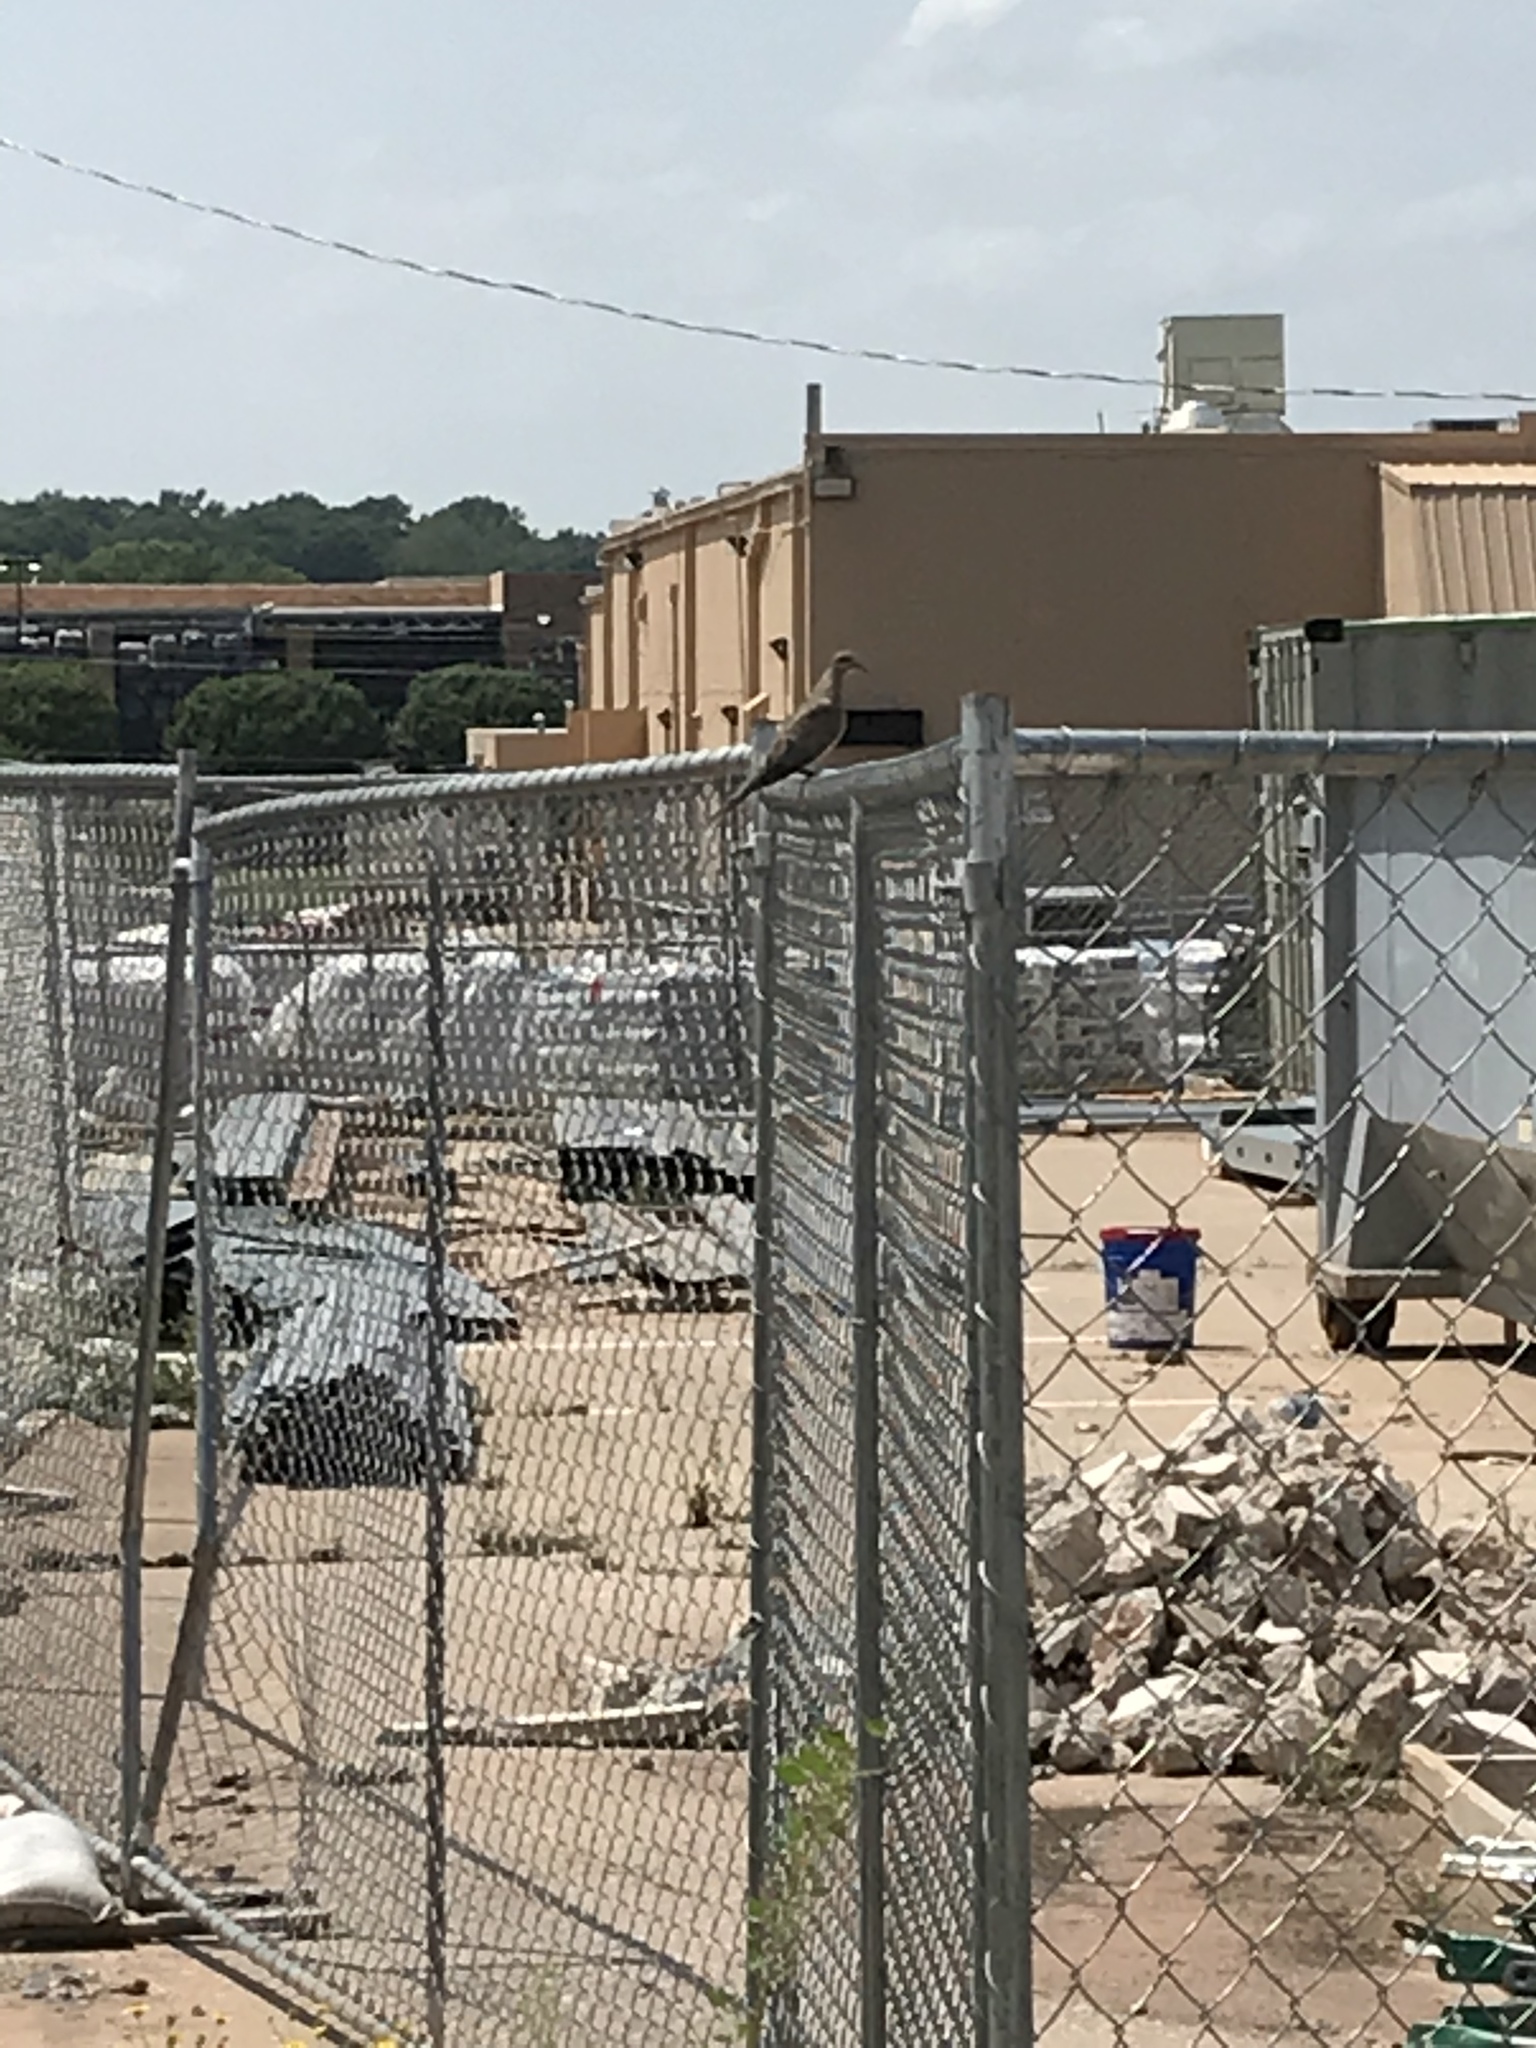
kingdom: Animalia
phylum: Chordata
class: Aves
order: Columbiformes
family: Columbidae
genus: Zenaida
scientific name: Zenaida macroura
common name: Mourning dove
